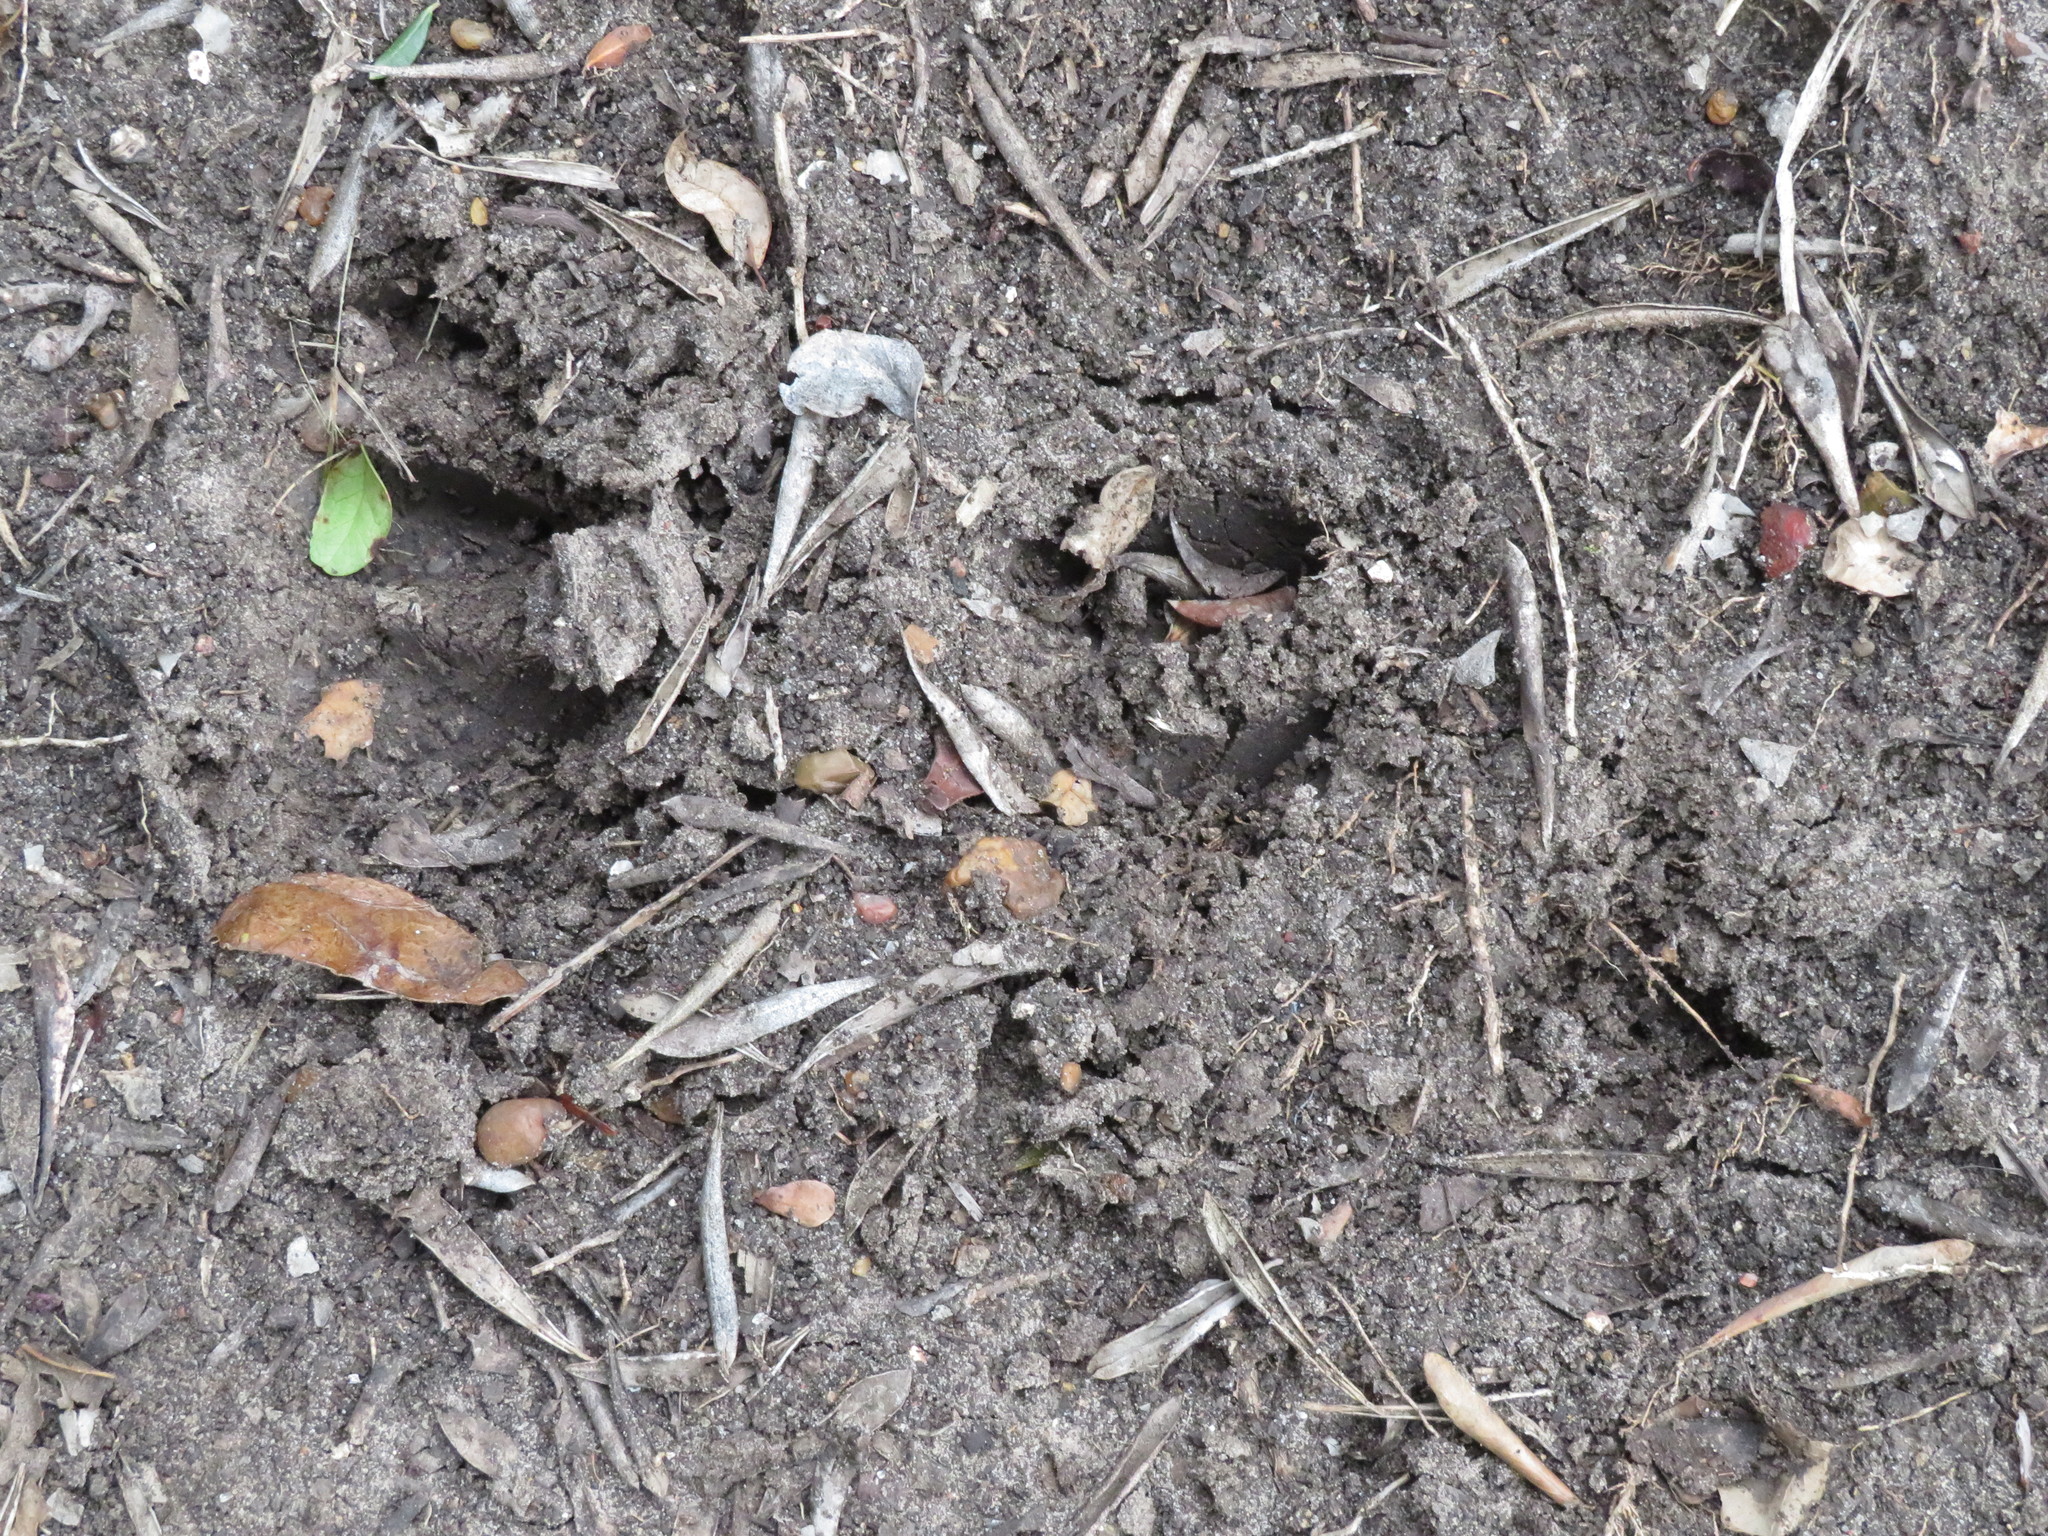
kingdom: Animalia
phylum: Chordata
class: Mammalia
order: Artiodactyla
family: Suidae
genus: Sus
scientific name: Sus scrofa
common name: Wild boar
